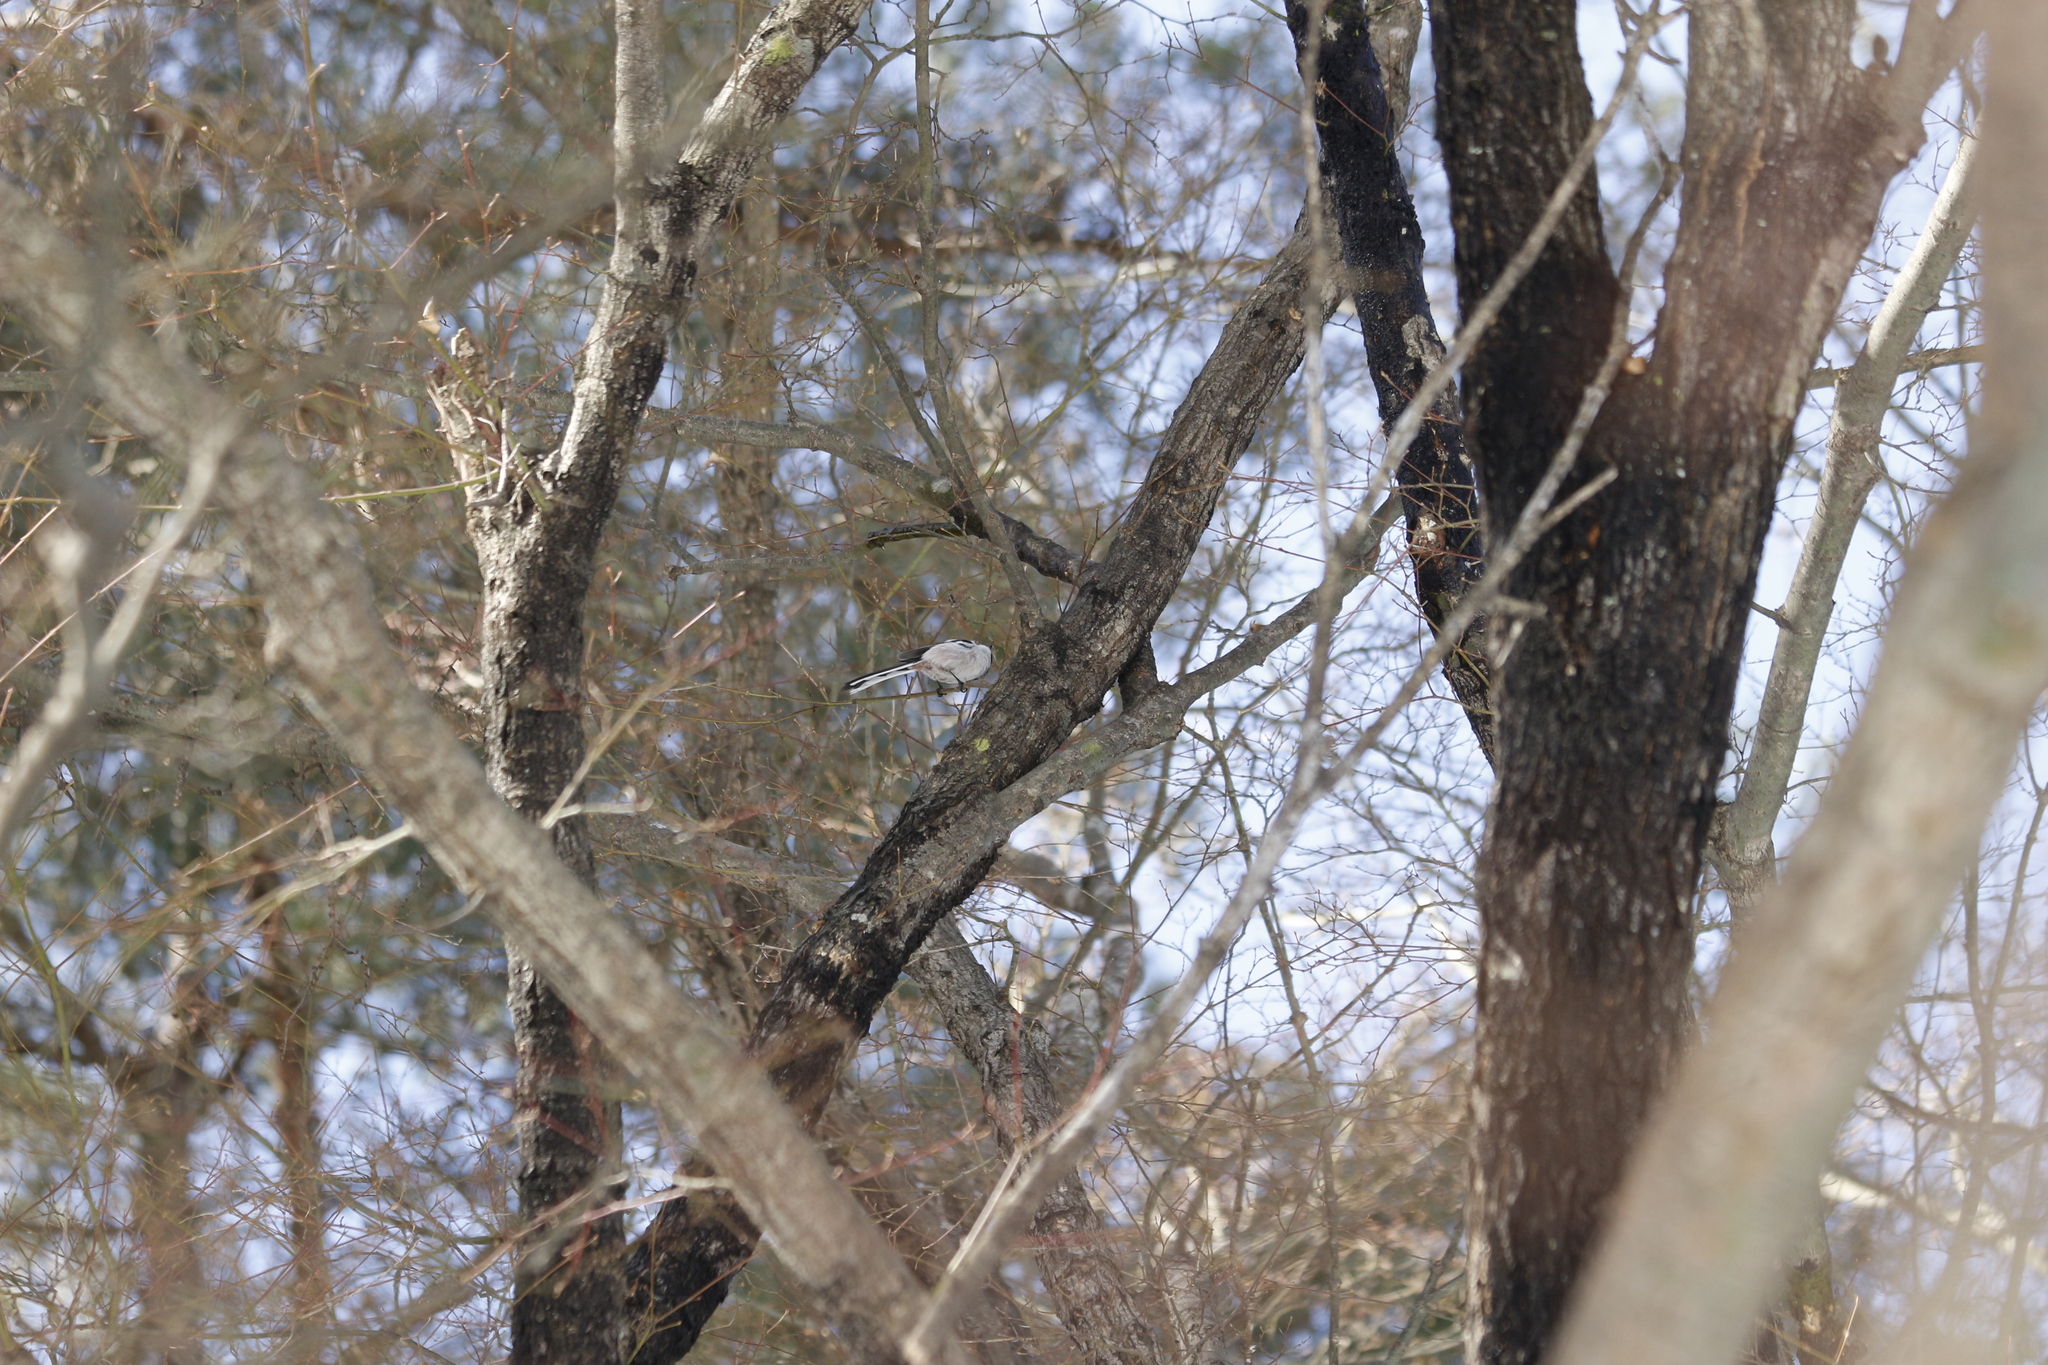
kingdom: Animalia
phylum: Chordata
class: Aves
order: Passeriformes
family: Aegithalidae
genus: Aegithalos
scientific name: Aegithalos caudatus
